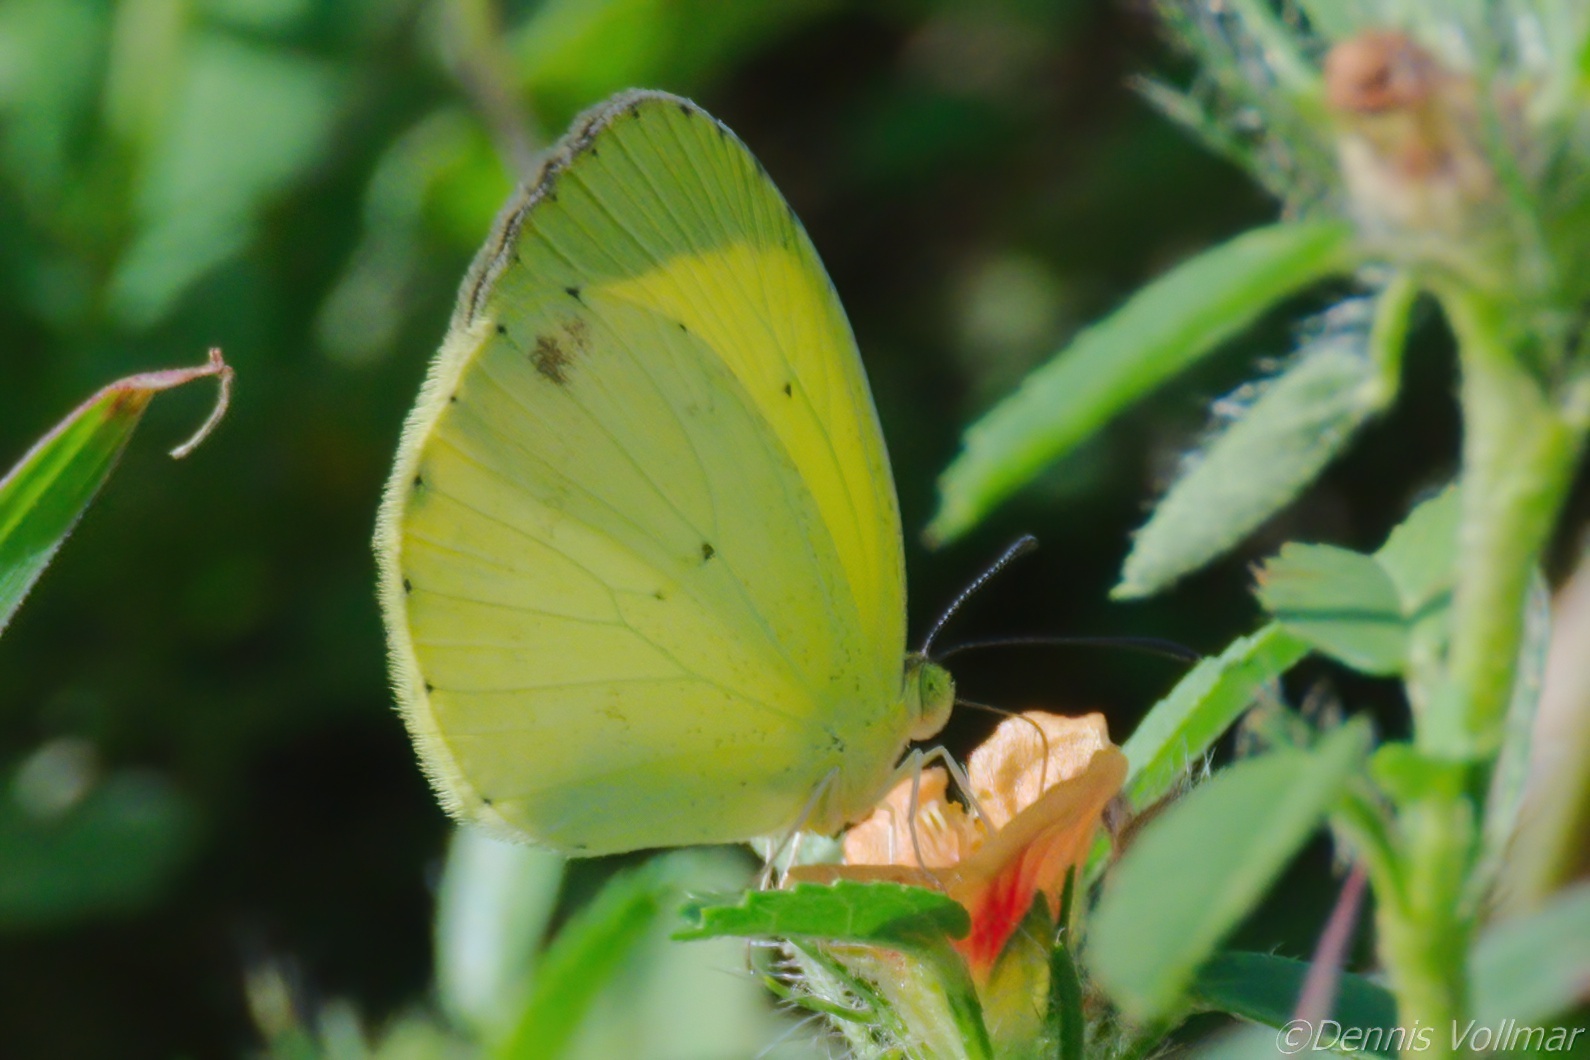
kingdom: Animalia
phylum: Arthropoda
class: Insecta
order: Lepidoptera
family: Pieridae
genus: Pyrisitia
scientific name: Pyrisitia nise
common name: Mimosa yellow
